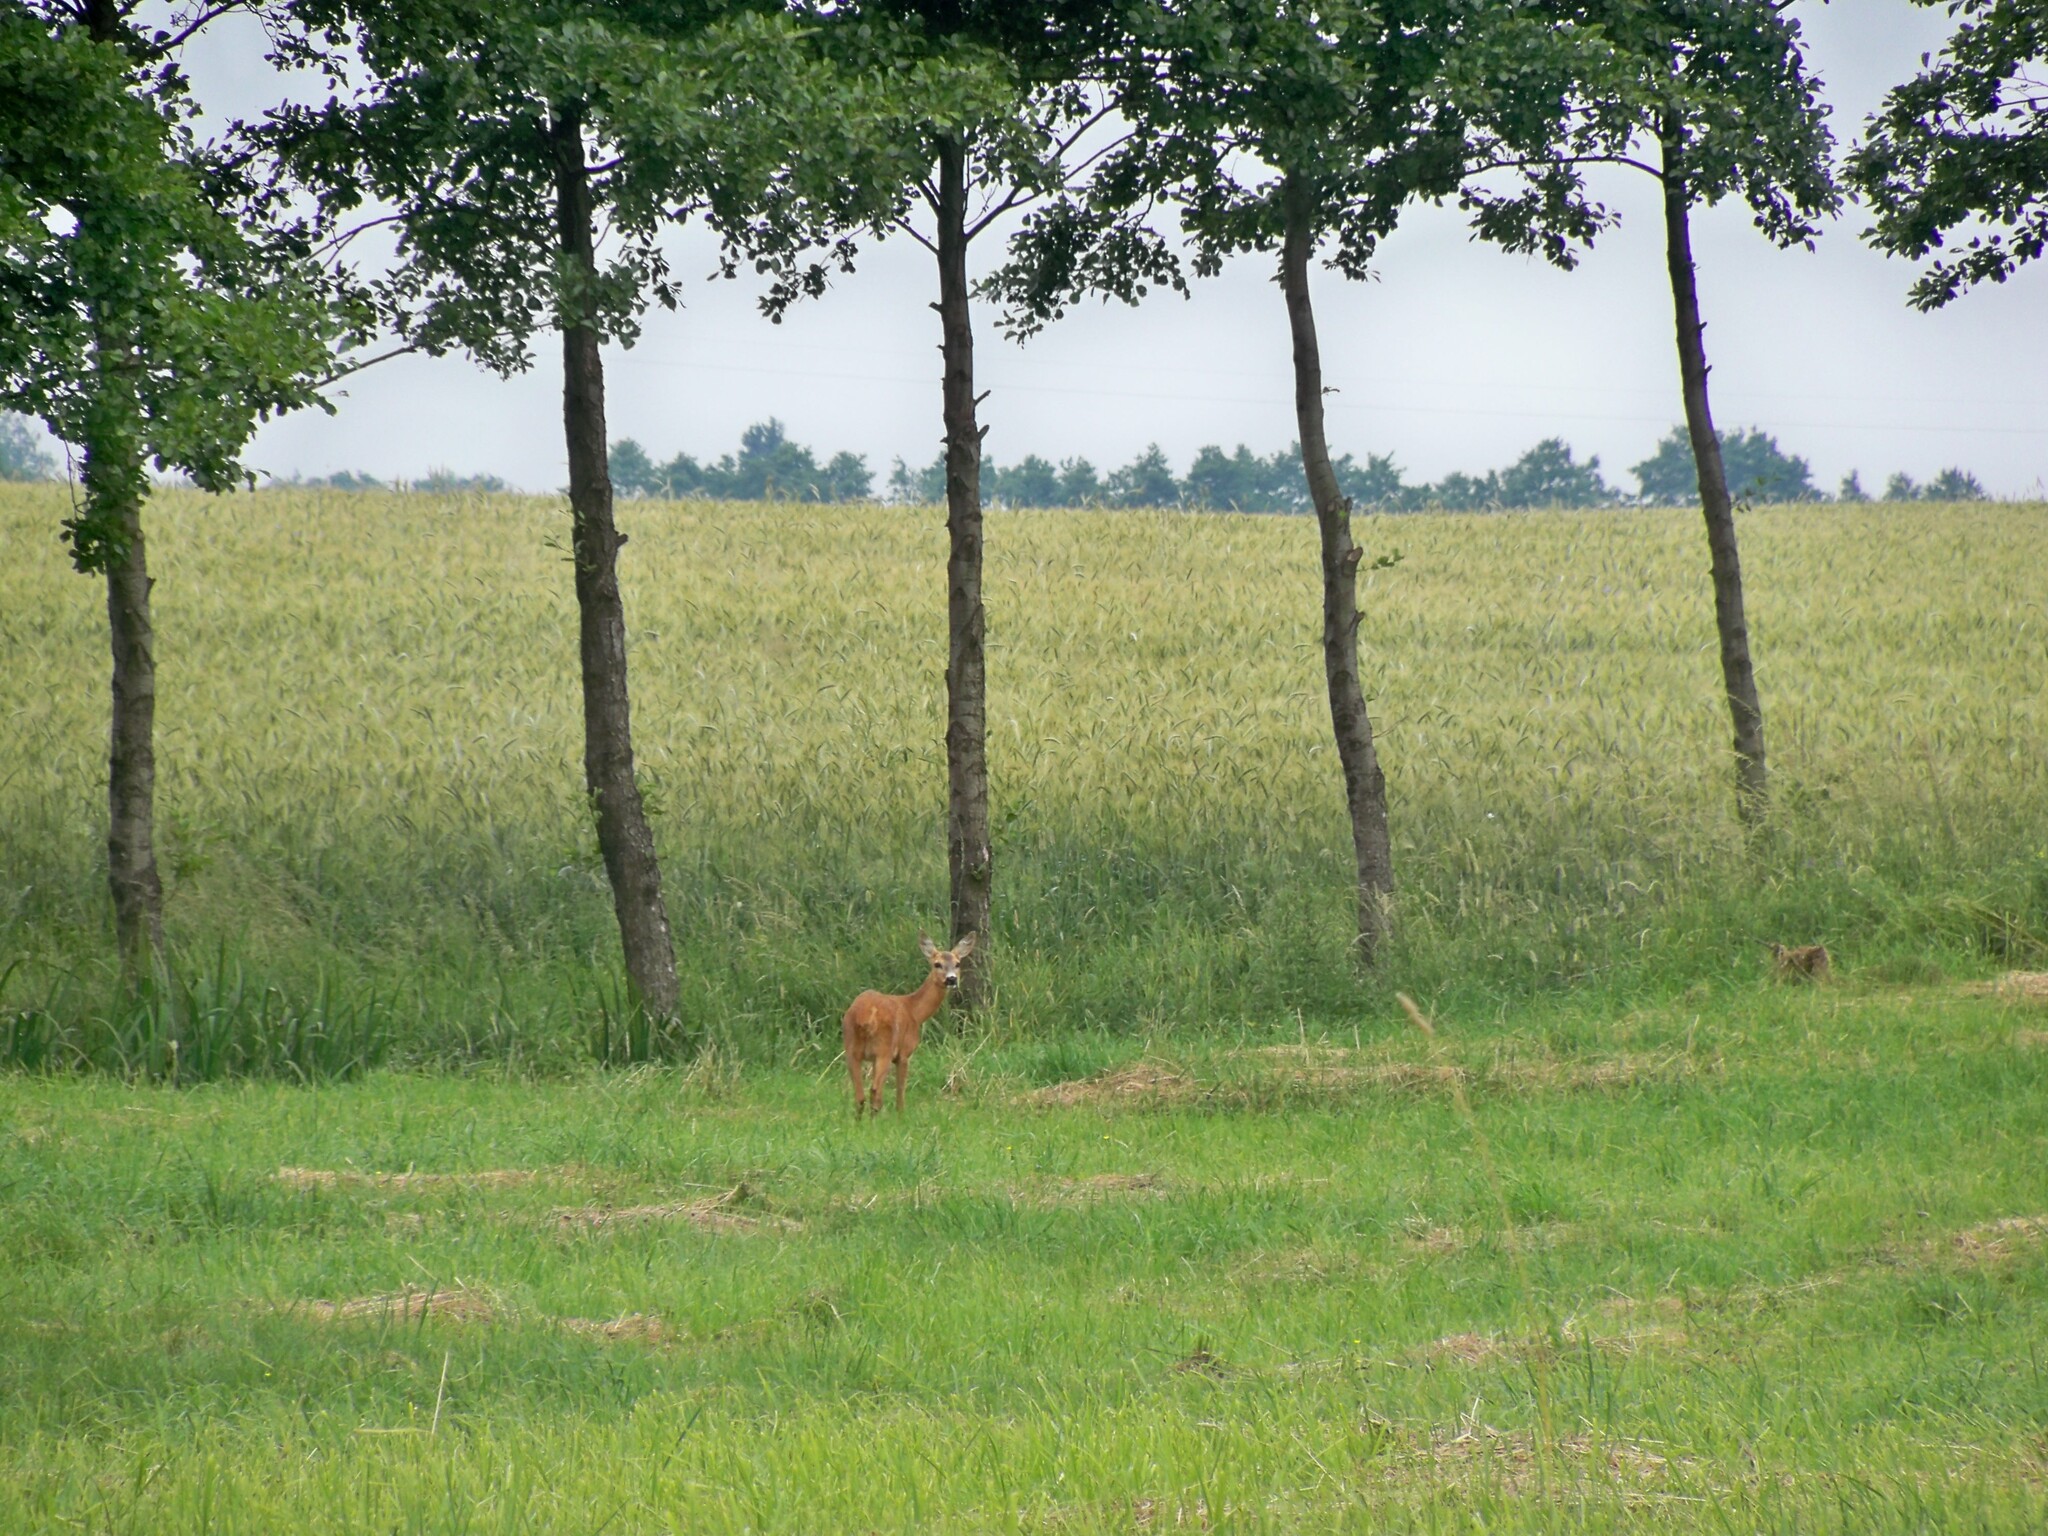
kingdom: Animalia
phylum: Chordata
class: Mammalia
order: Artiodactyla
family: Cervidae
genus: Capreolus
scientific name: Capreolus capreolus
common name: Western roe deer
